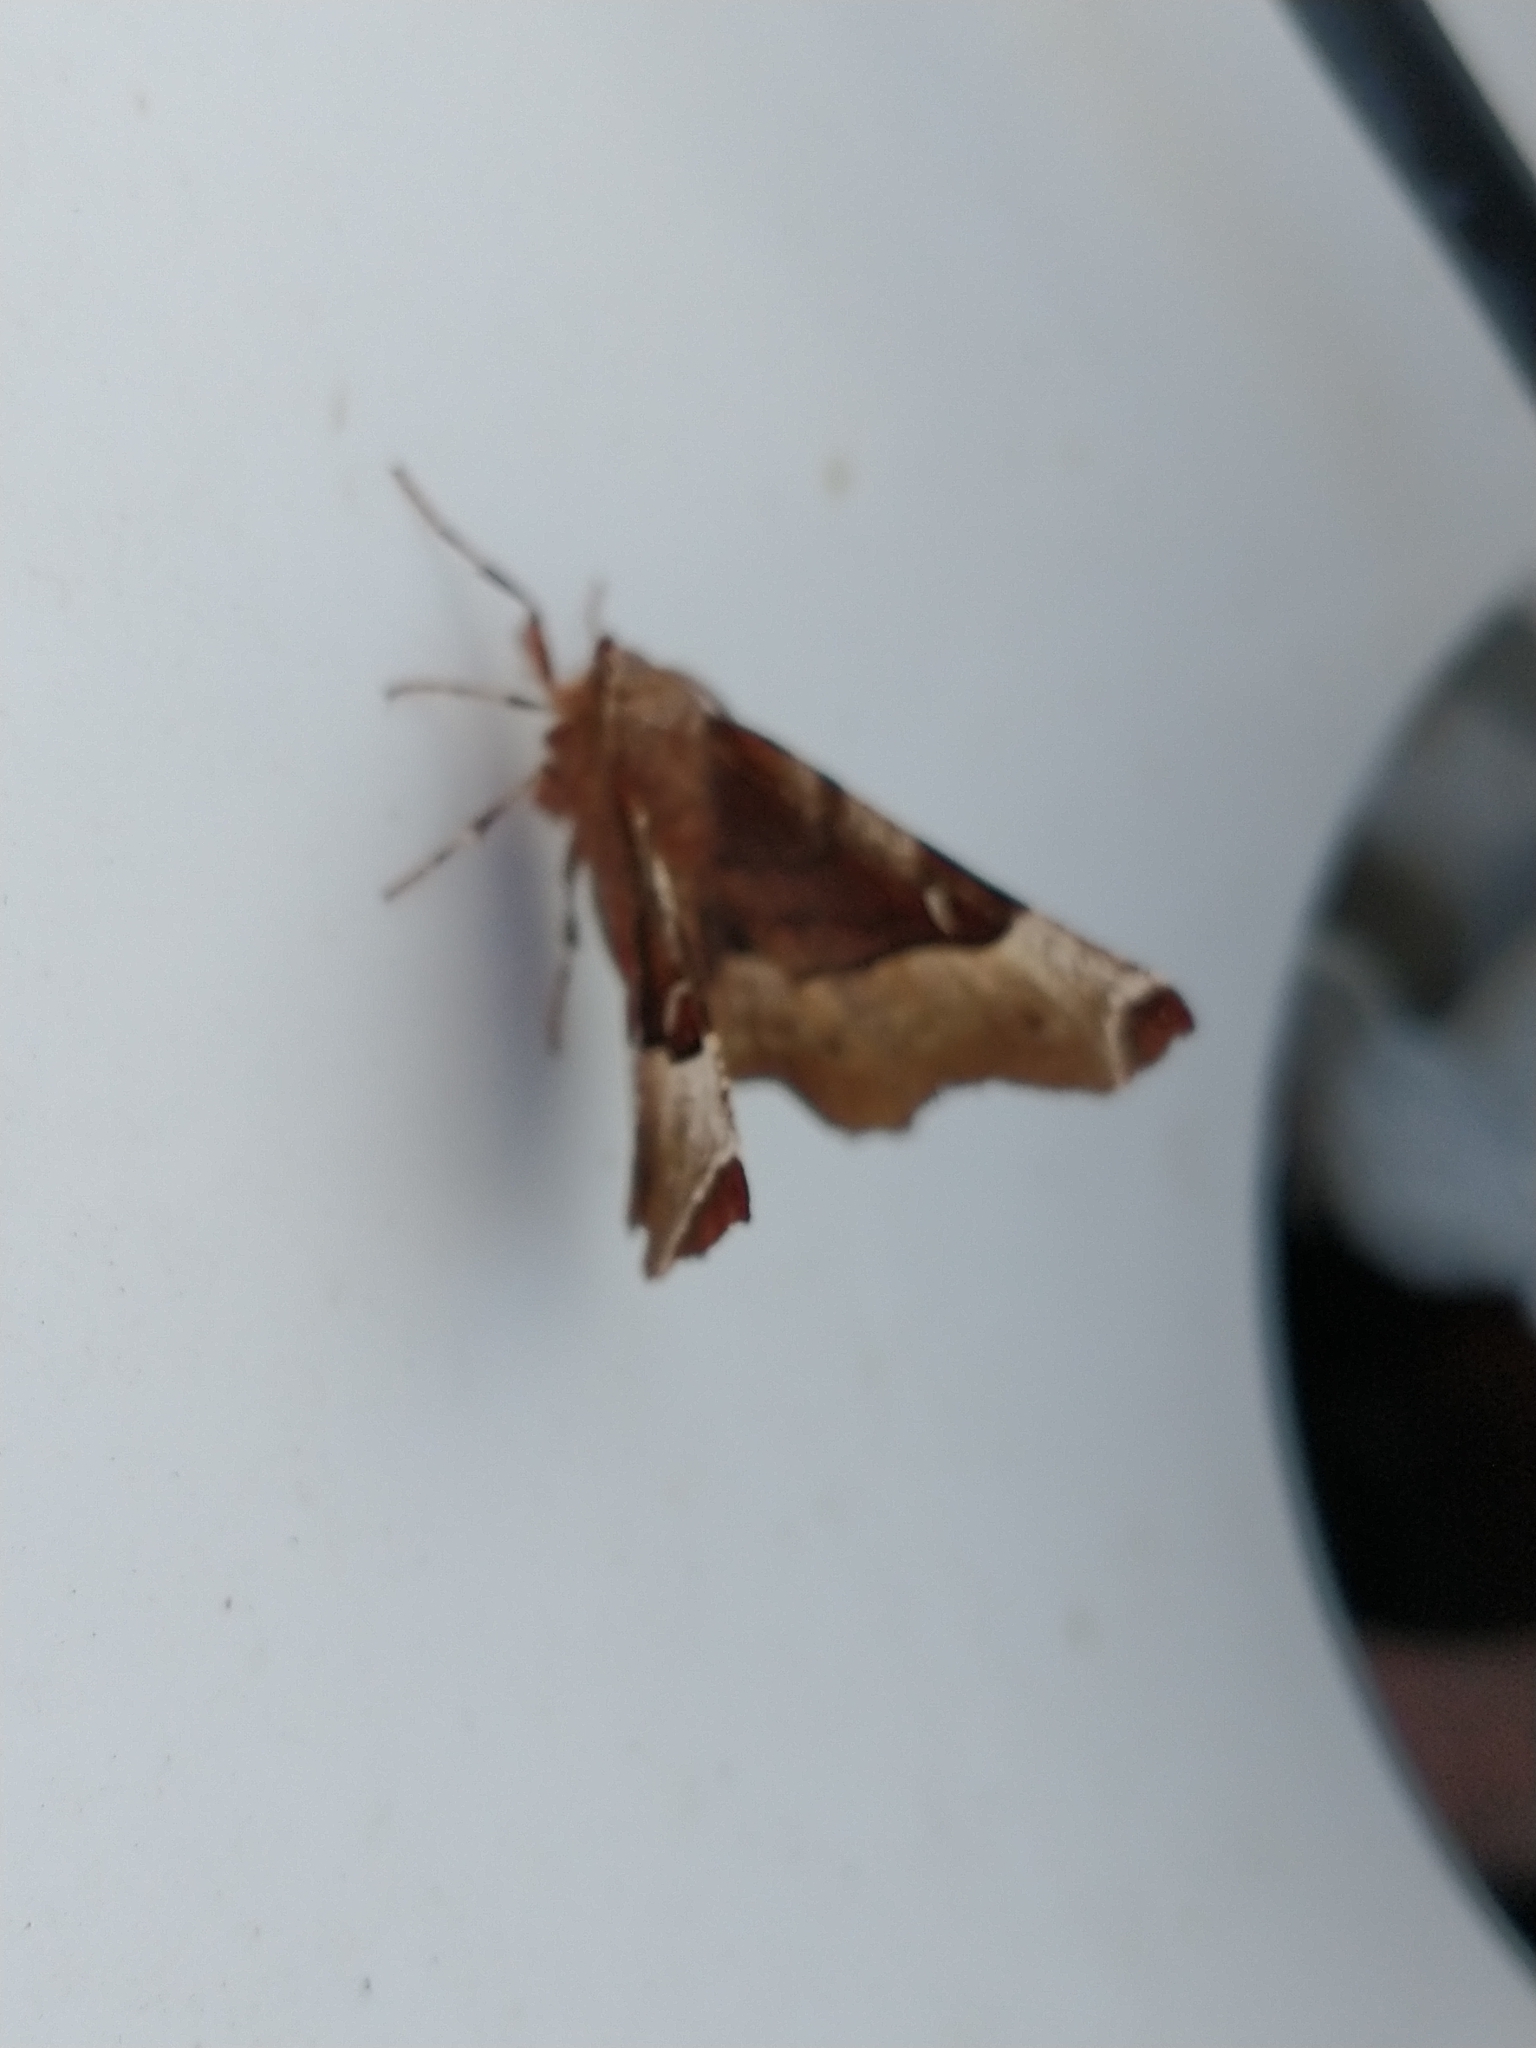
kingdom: Animalia
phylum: Arthropoda
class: Insecta
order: Lepidoptera
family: Geometridae
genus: Selenia
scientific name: Selenia tetralunaria
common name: Purple thorn
